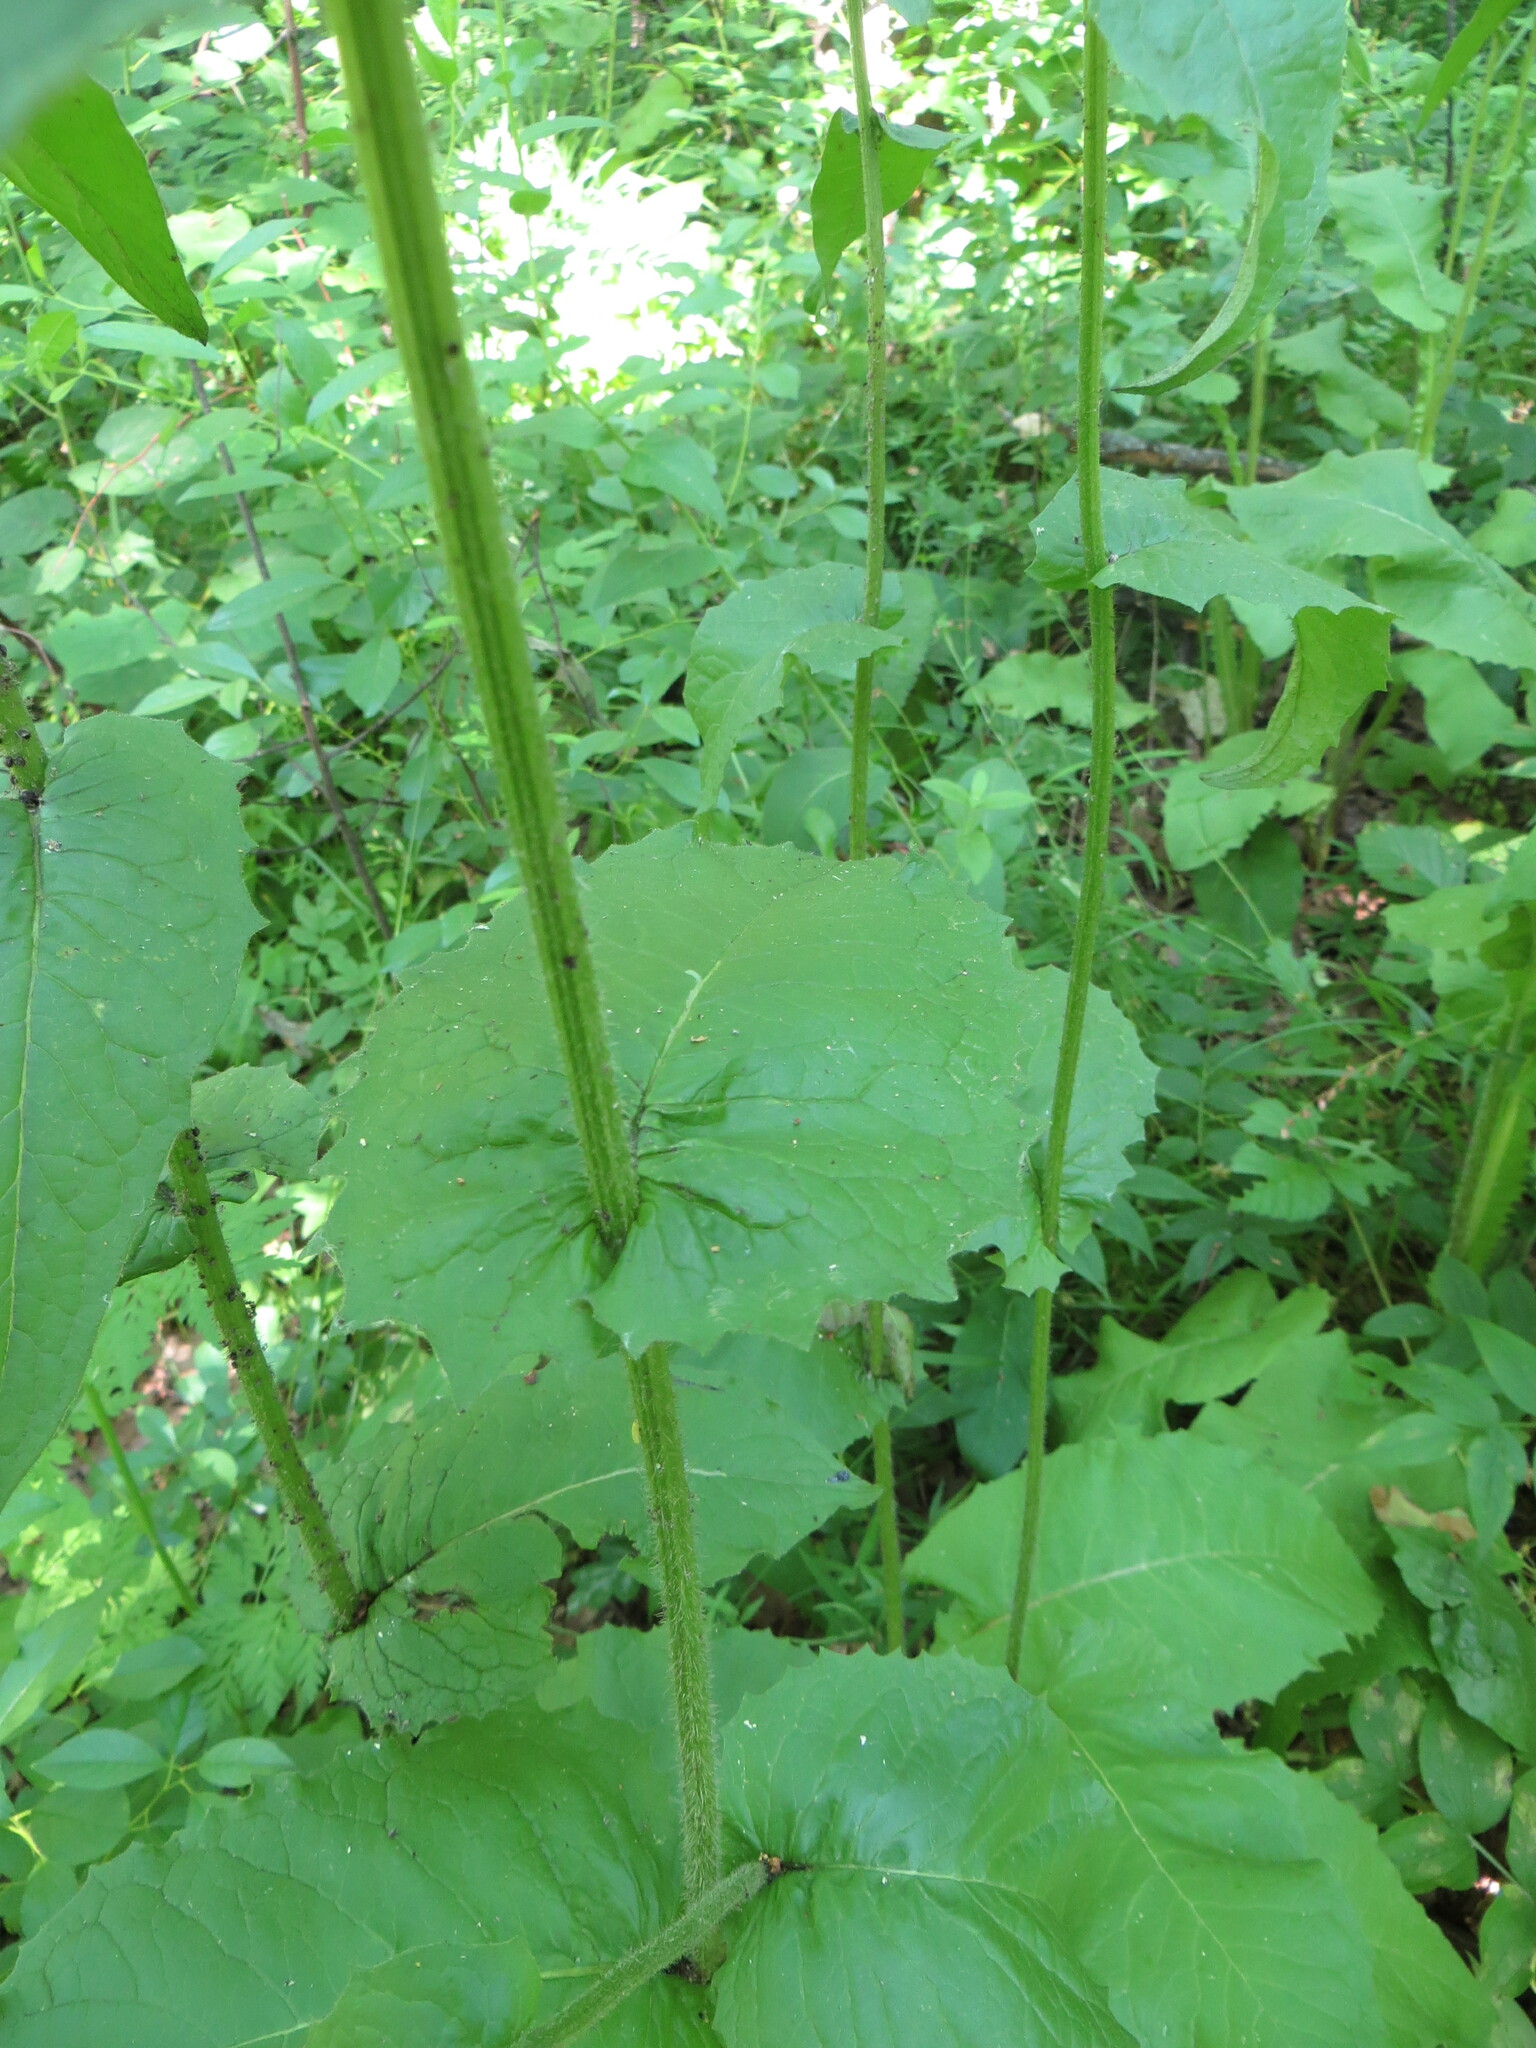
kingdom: Plantae
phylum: Tracheophyta
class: Magnoliopsida
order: Asterales
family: Asteraceae
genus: Crepis
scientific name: Crepis sibirica
